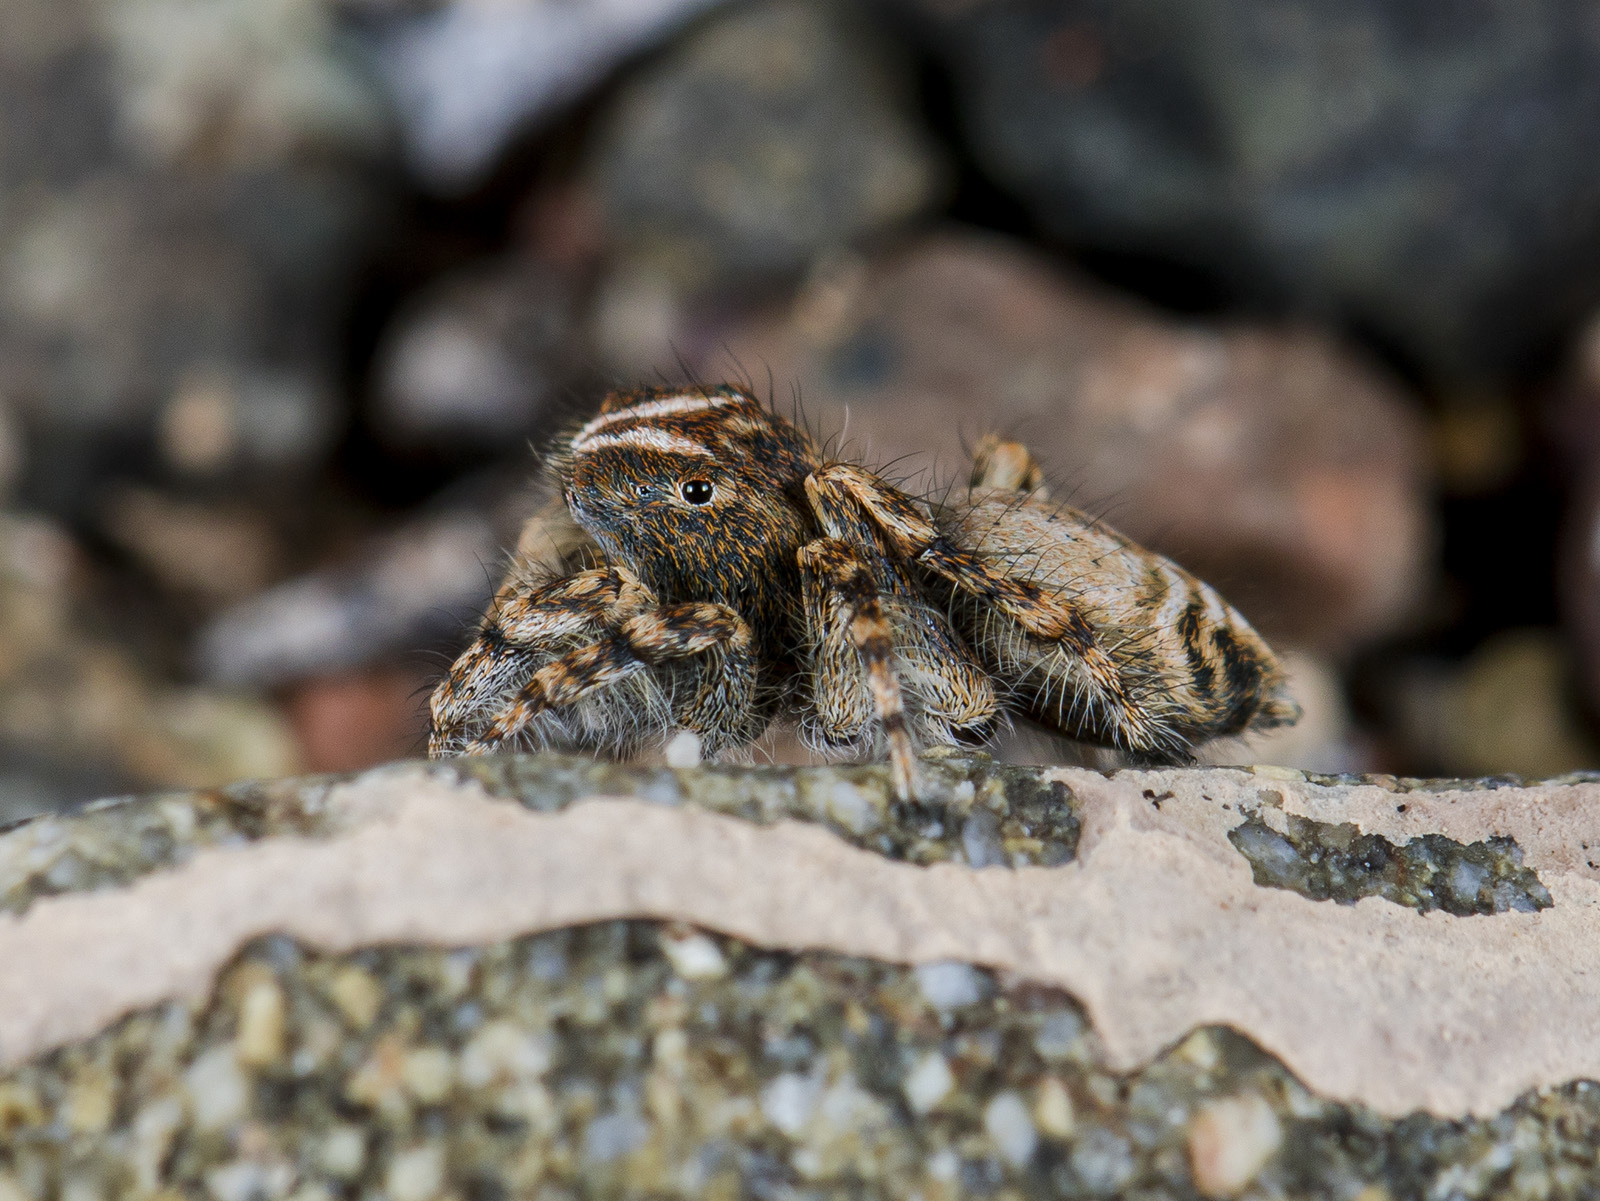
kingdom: Animalia
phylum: Arthropoda
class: Arachnida
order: Araneae
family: Salticidae
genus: Yllenus
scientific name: Yllenus zyuzini
